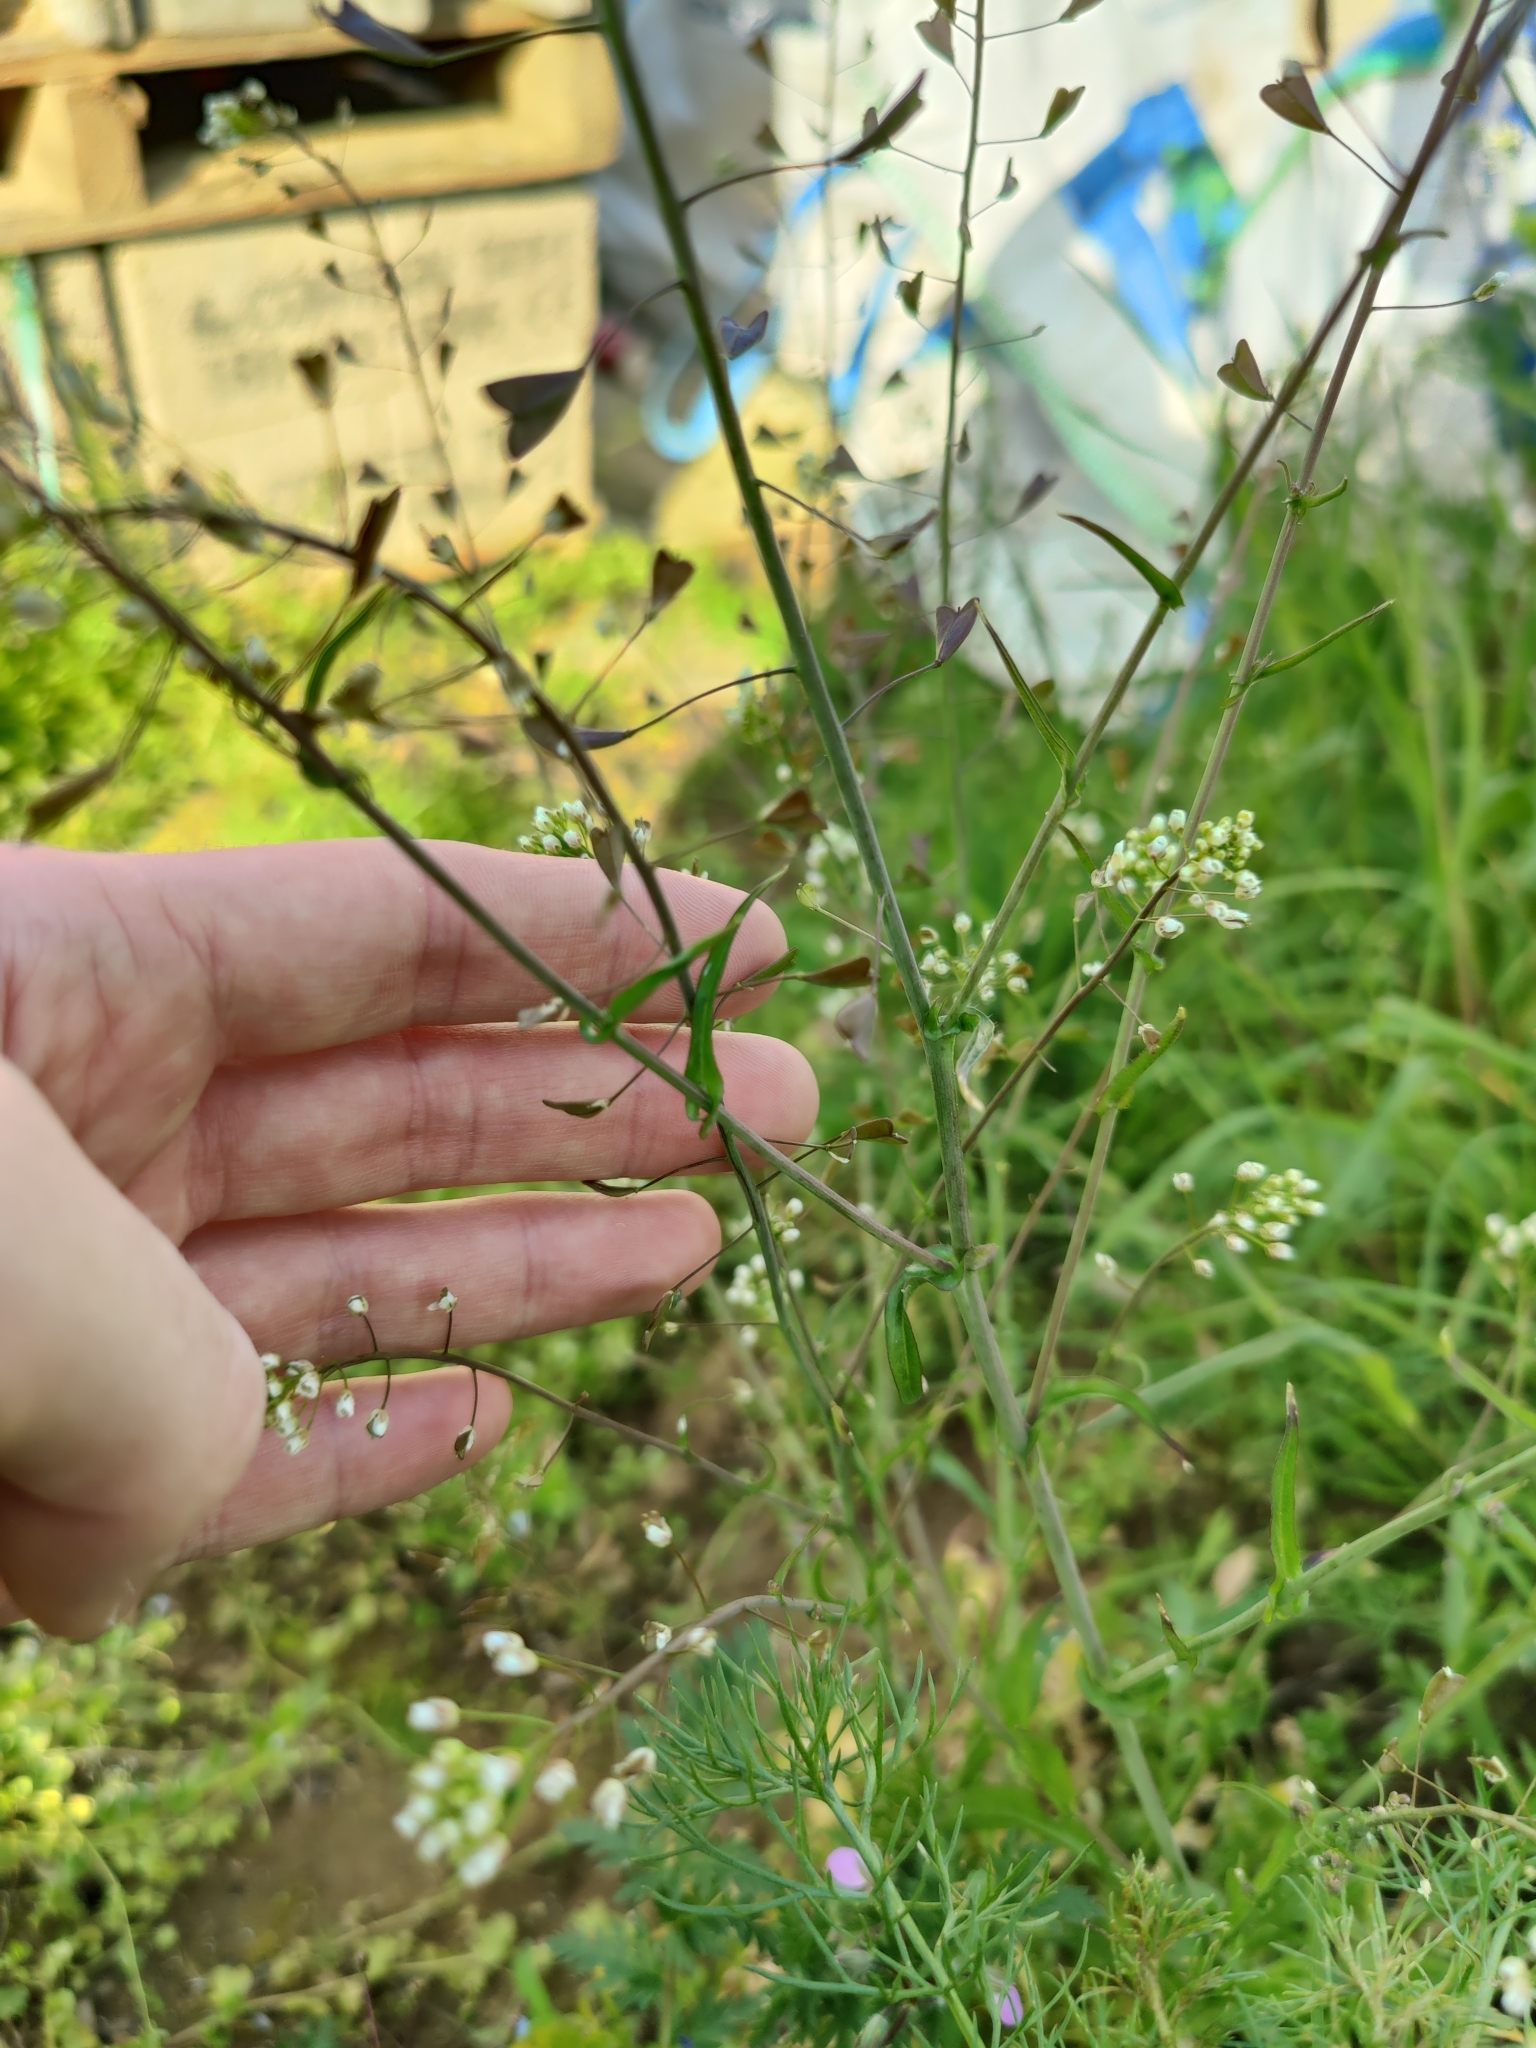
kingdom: Plantae
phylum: Tracheophyta
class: Magnoliopsida
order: Brassicales
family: Brassicaceae
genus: Capsella
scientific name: Capsella bursa-pastoris
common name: Shepherd's purse
